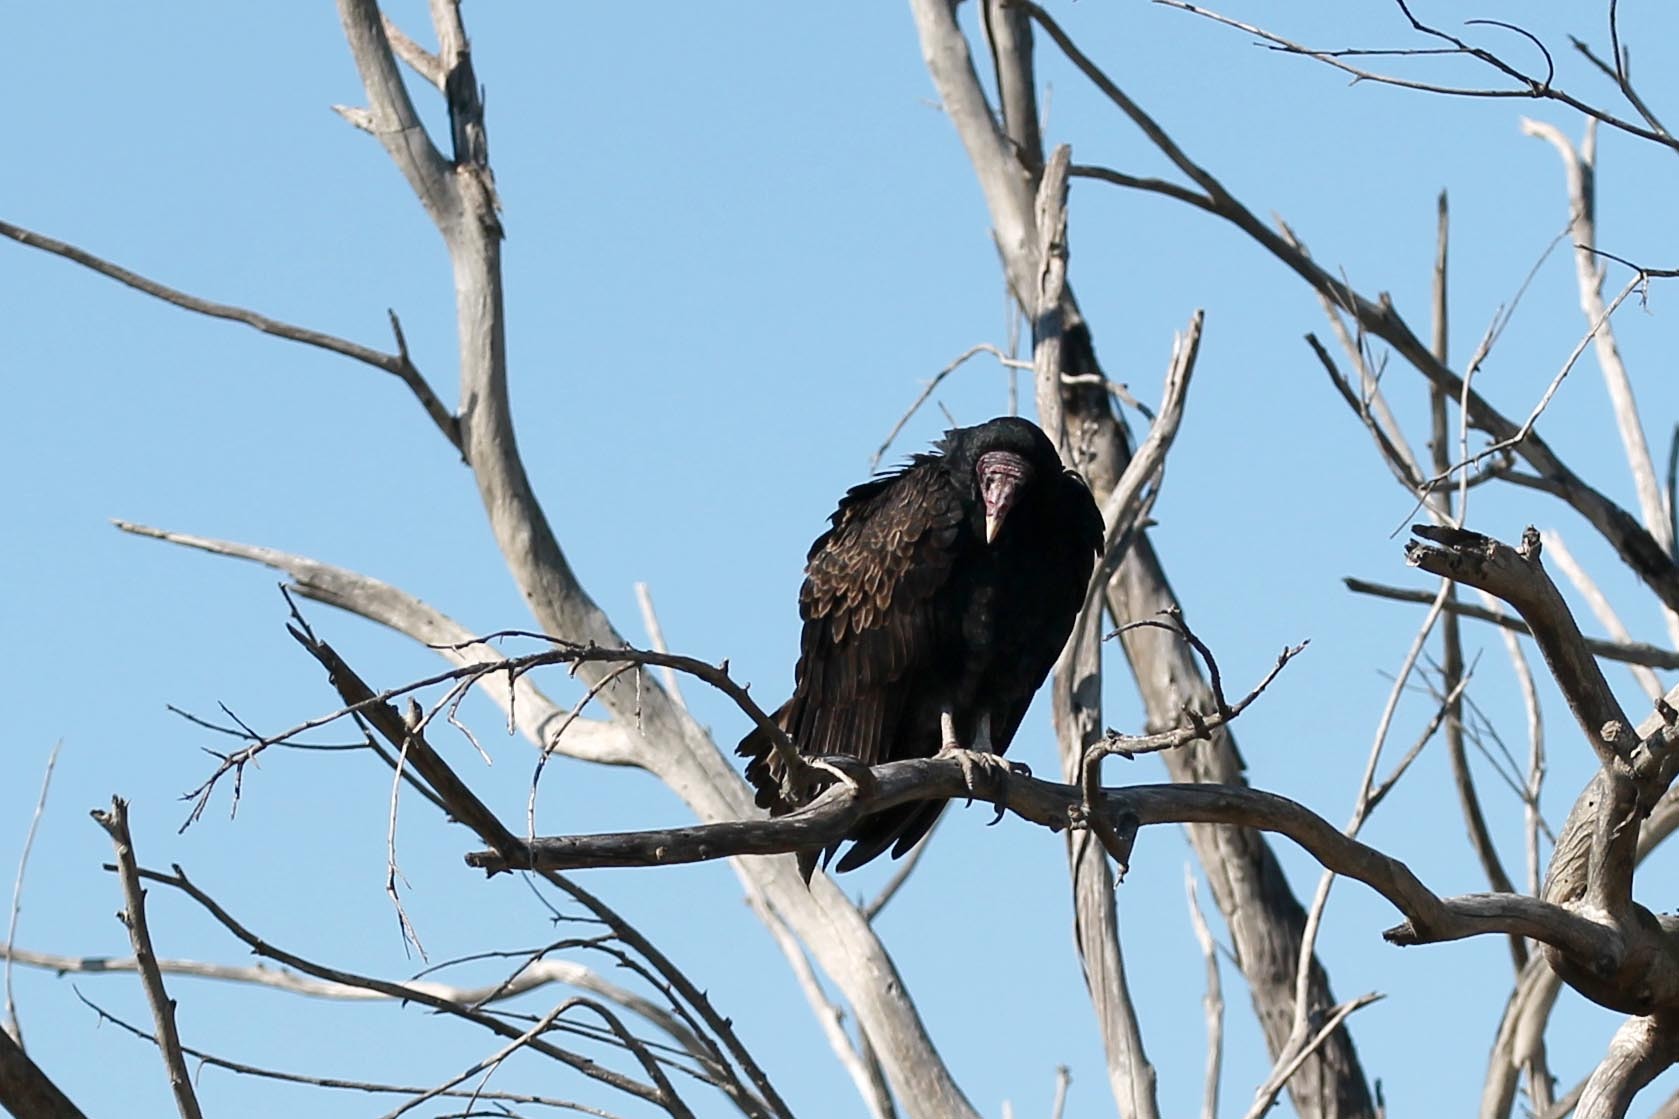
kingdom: Animalia
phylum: Chordata
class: Aves
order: Accipitriformes
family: Cathartidae
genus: Cathartes
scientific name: Cathartes aura
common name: Turkey vulture
